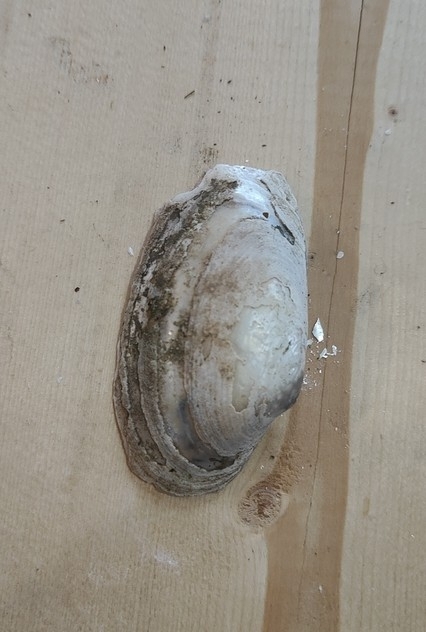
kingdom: Animalia
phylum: Mollusca
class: Bivalvia
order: Unionida
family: Unionidae
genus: Strophitus
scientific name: Strophitus undulatus
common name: Creeper
